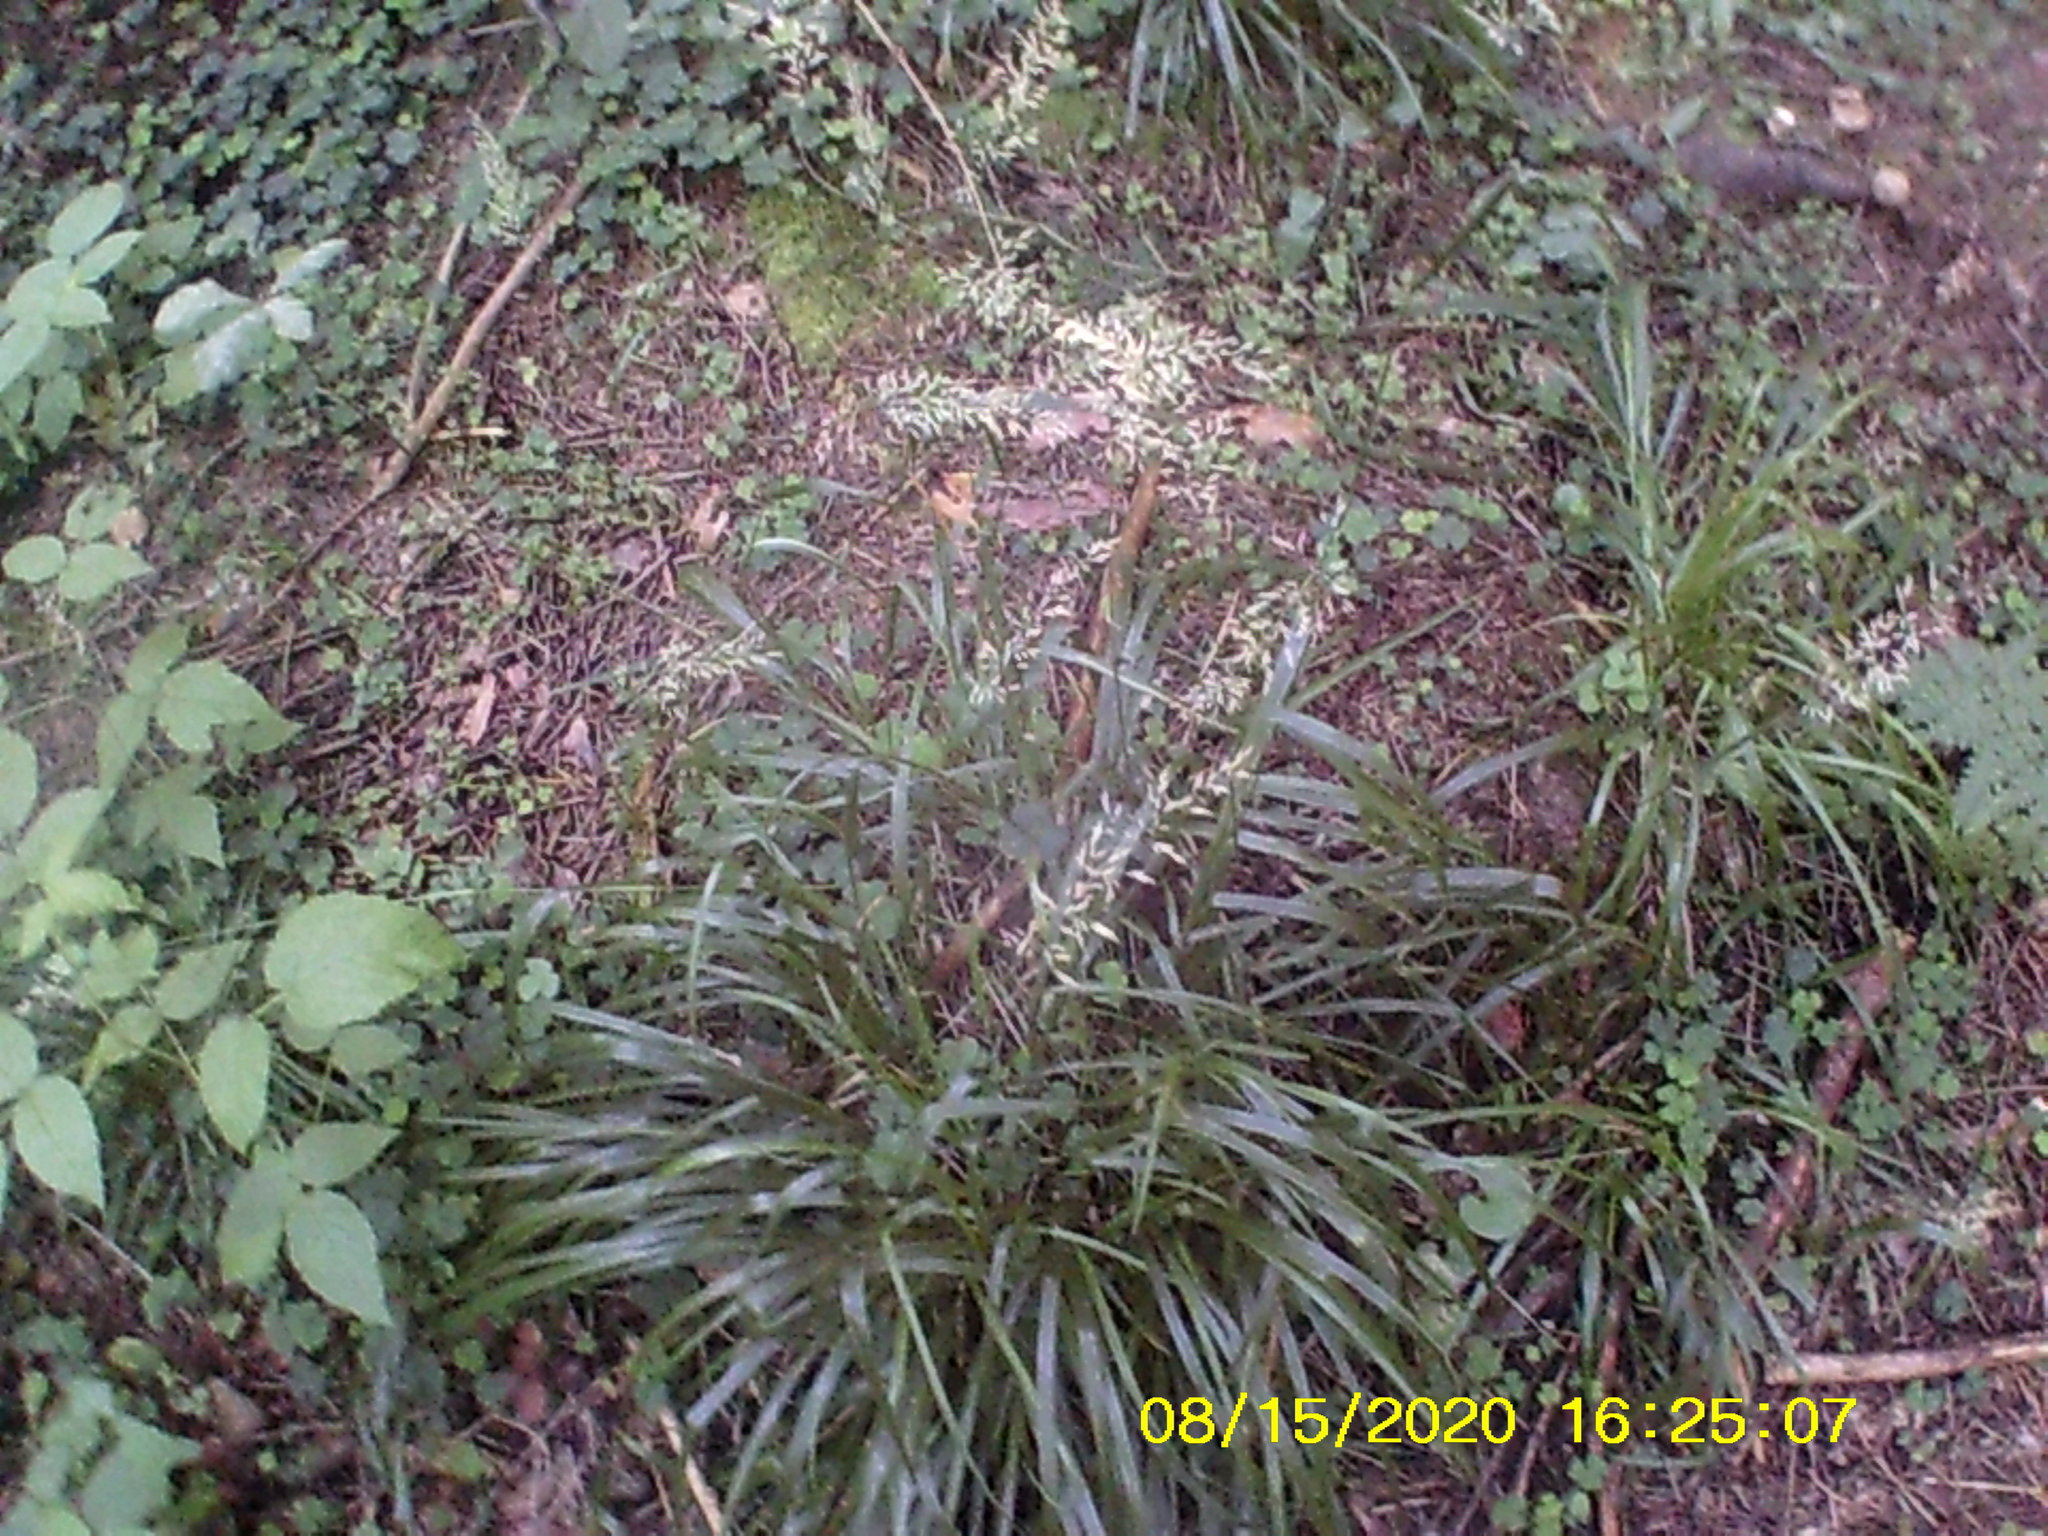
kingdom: Plantae
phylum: Tracheophyta
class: Liliopsida
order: Poales
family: Poaceae
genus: Calamagrostis
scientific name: Calamagrostis arundinacea
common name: Metskastik
